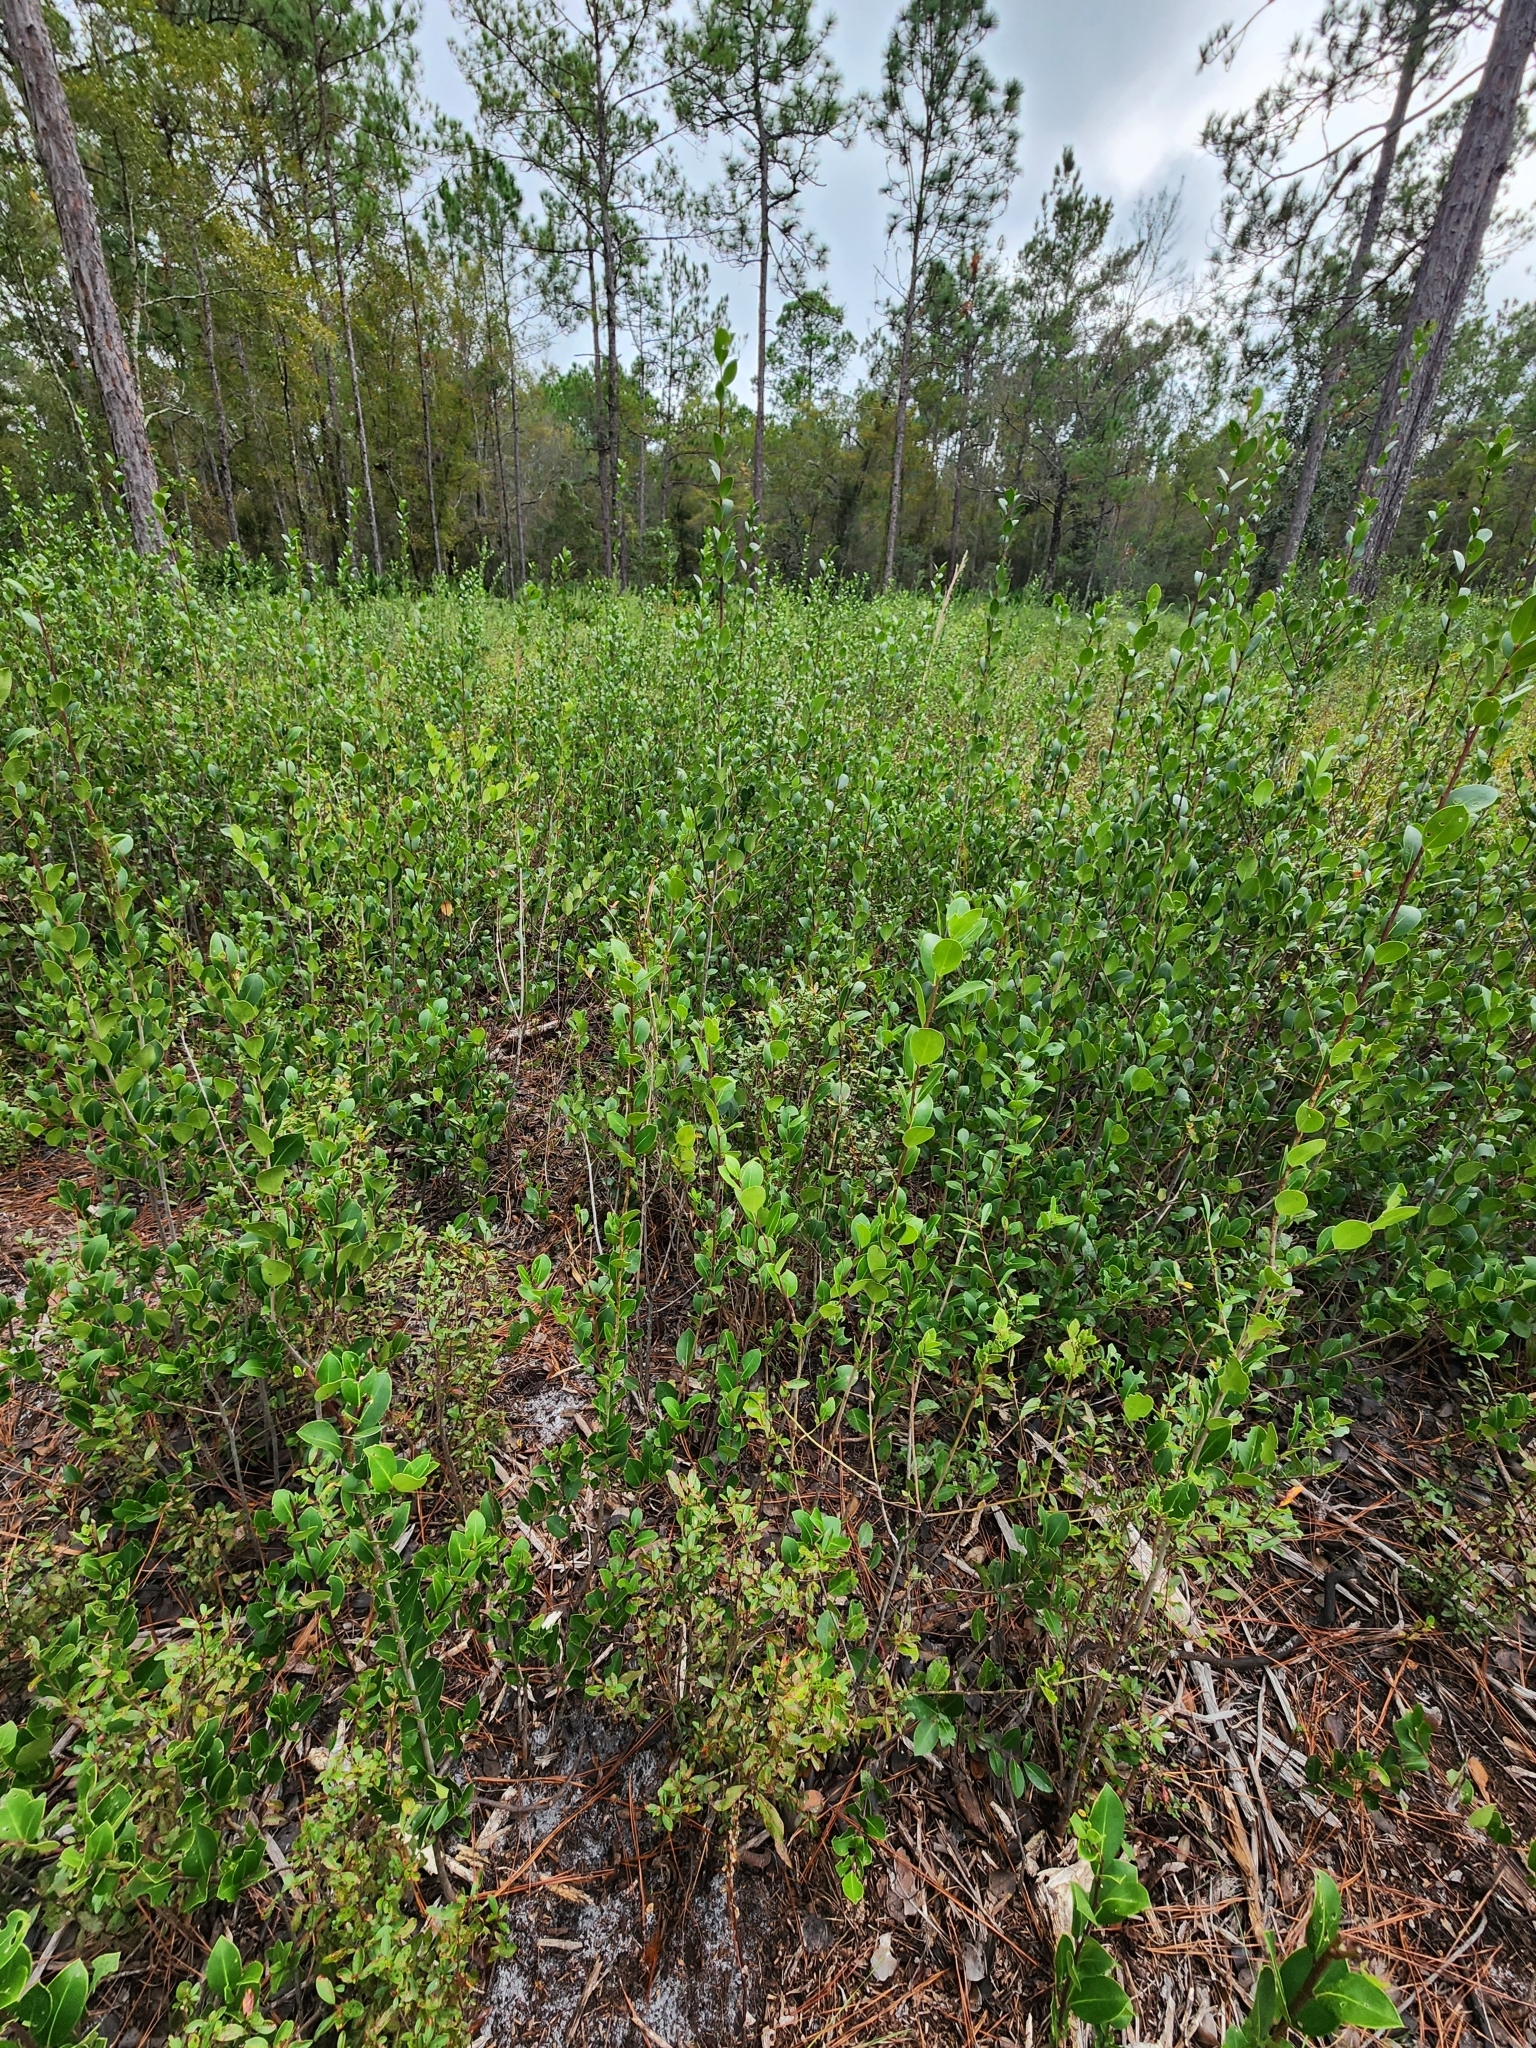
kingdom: Plantae
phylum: Tracheophyta
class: Magnoliopsida
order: Aquifoliales
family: Aquifoliaceae
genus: Ilex
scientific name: Ilex coriacea
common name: Sweet gallberry
